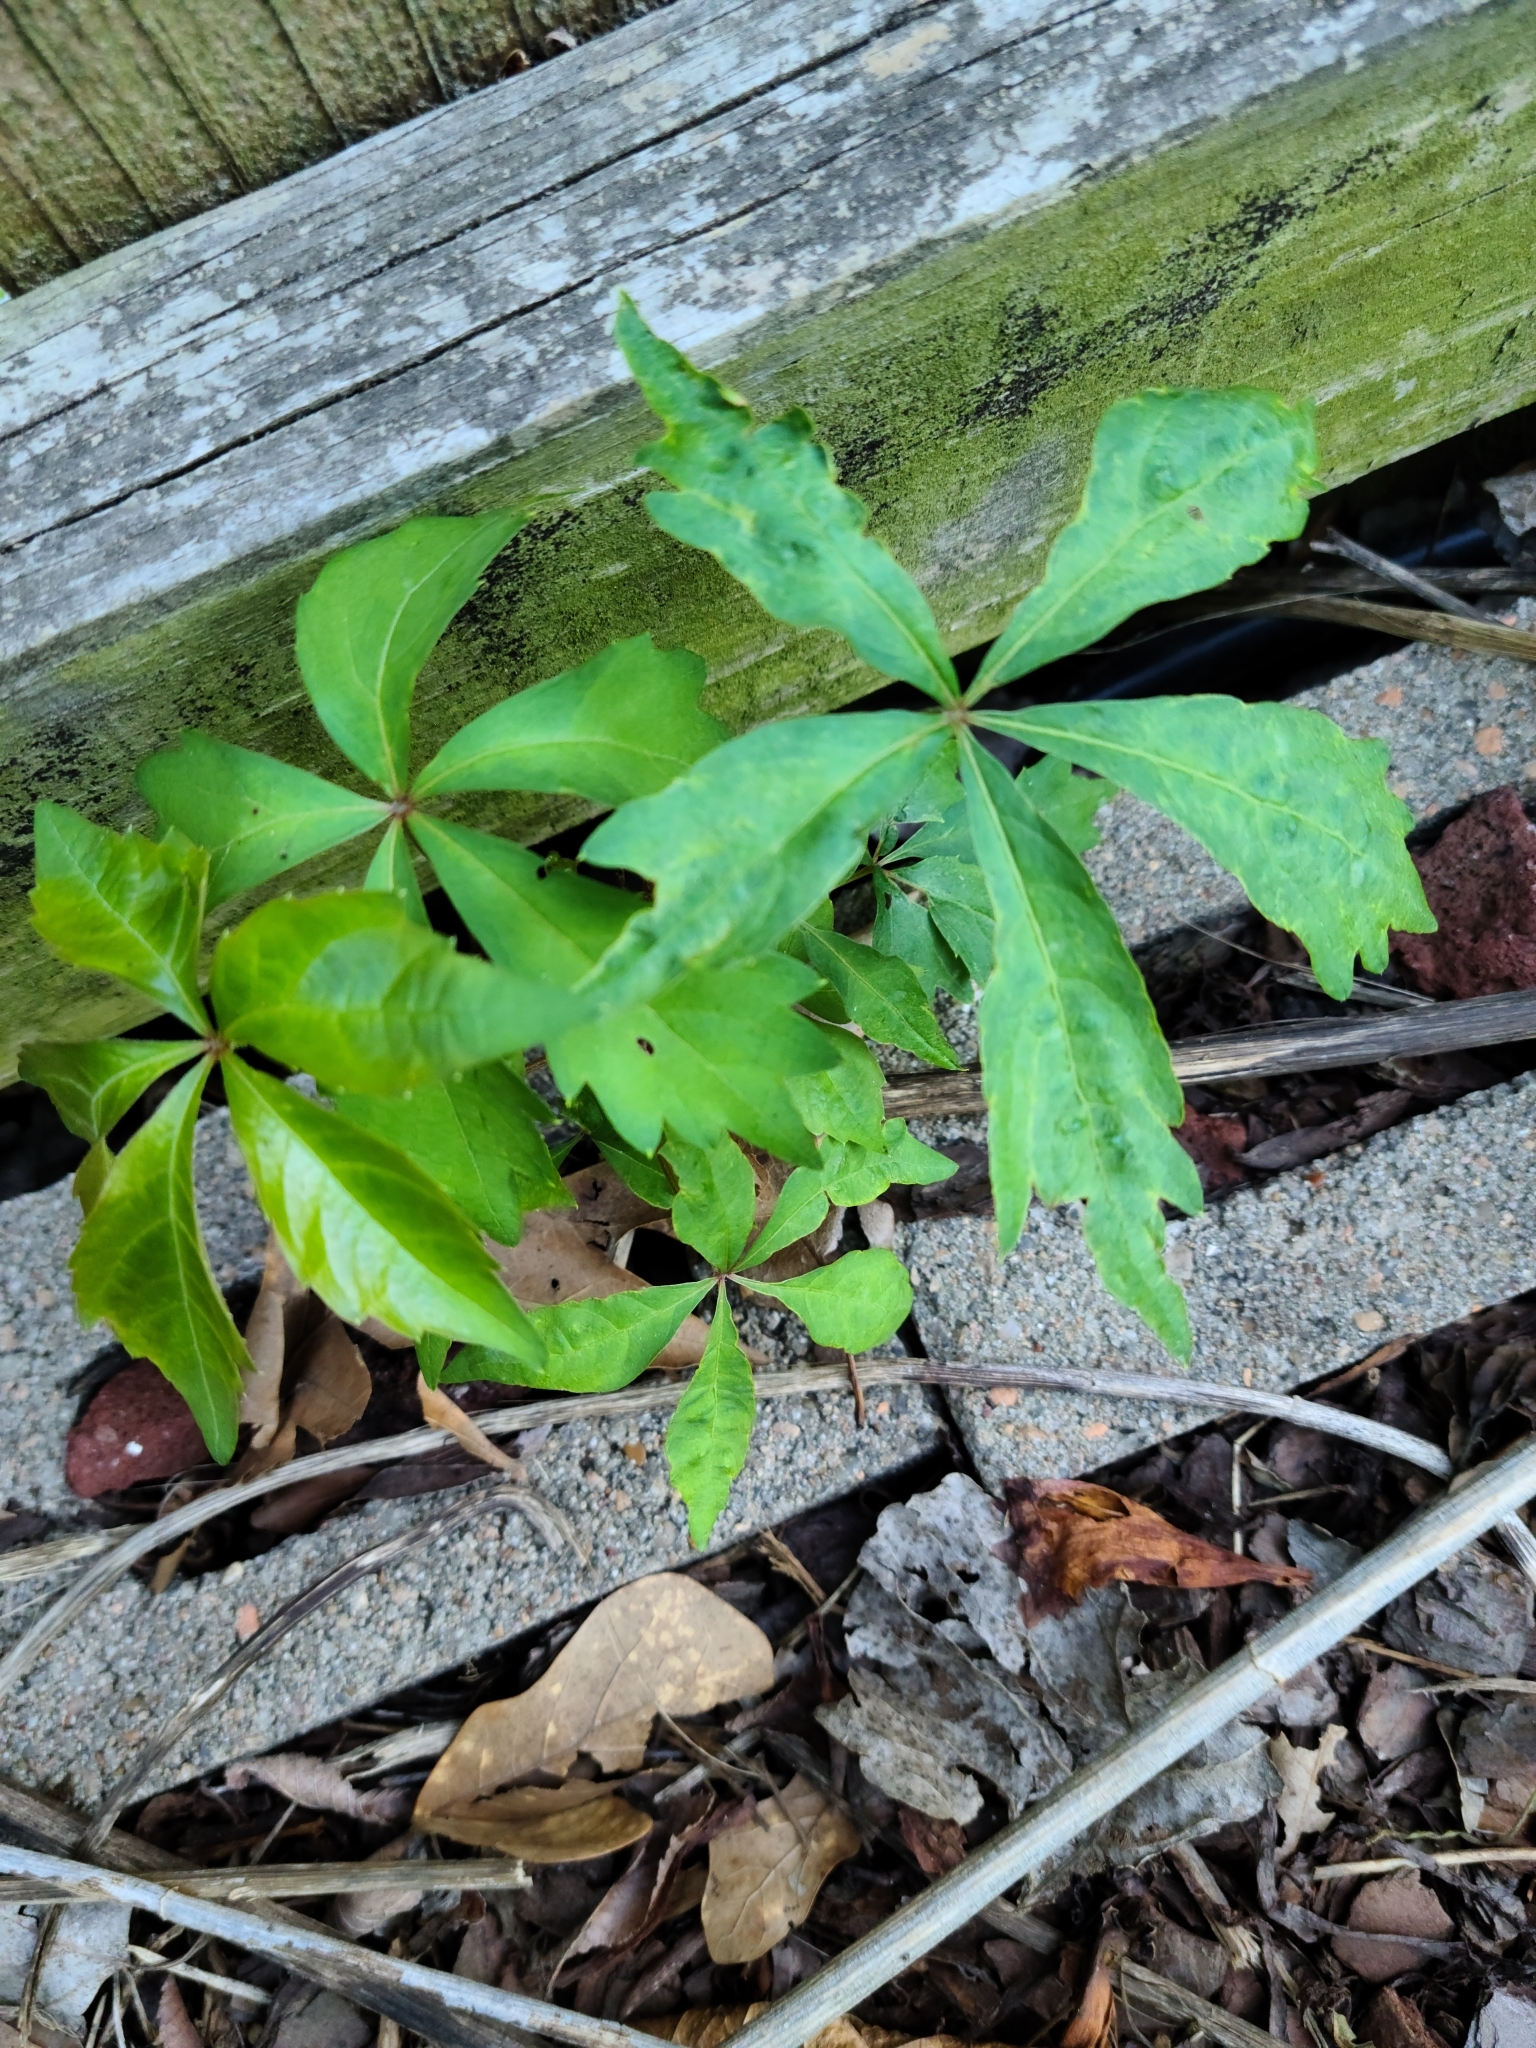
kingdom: Plantae
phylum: Tracheophyta
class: Magnoliopsida
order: Vitales
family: Vitaceae
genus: Parthenocissus
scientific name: Parthenocissus quinquefolia
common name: Virginia-creeper
